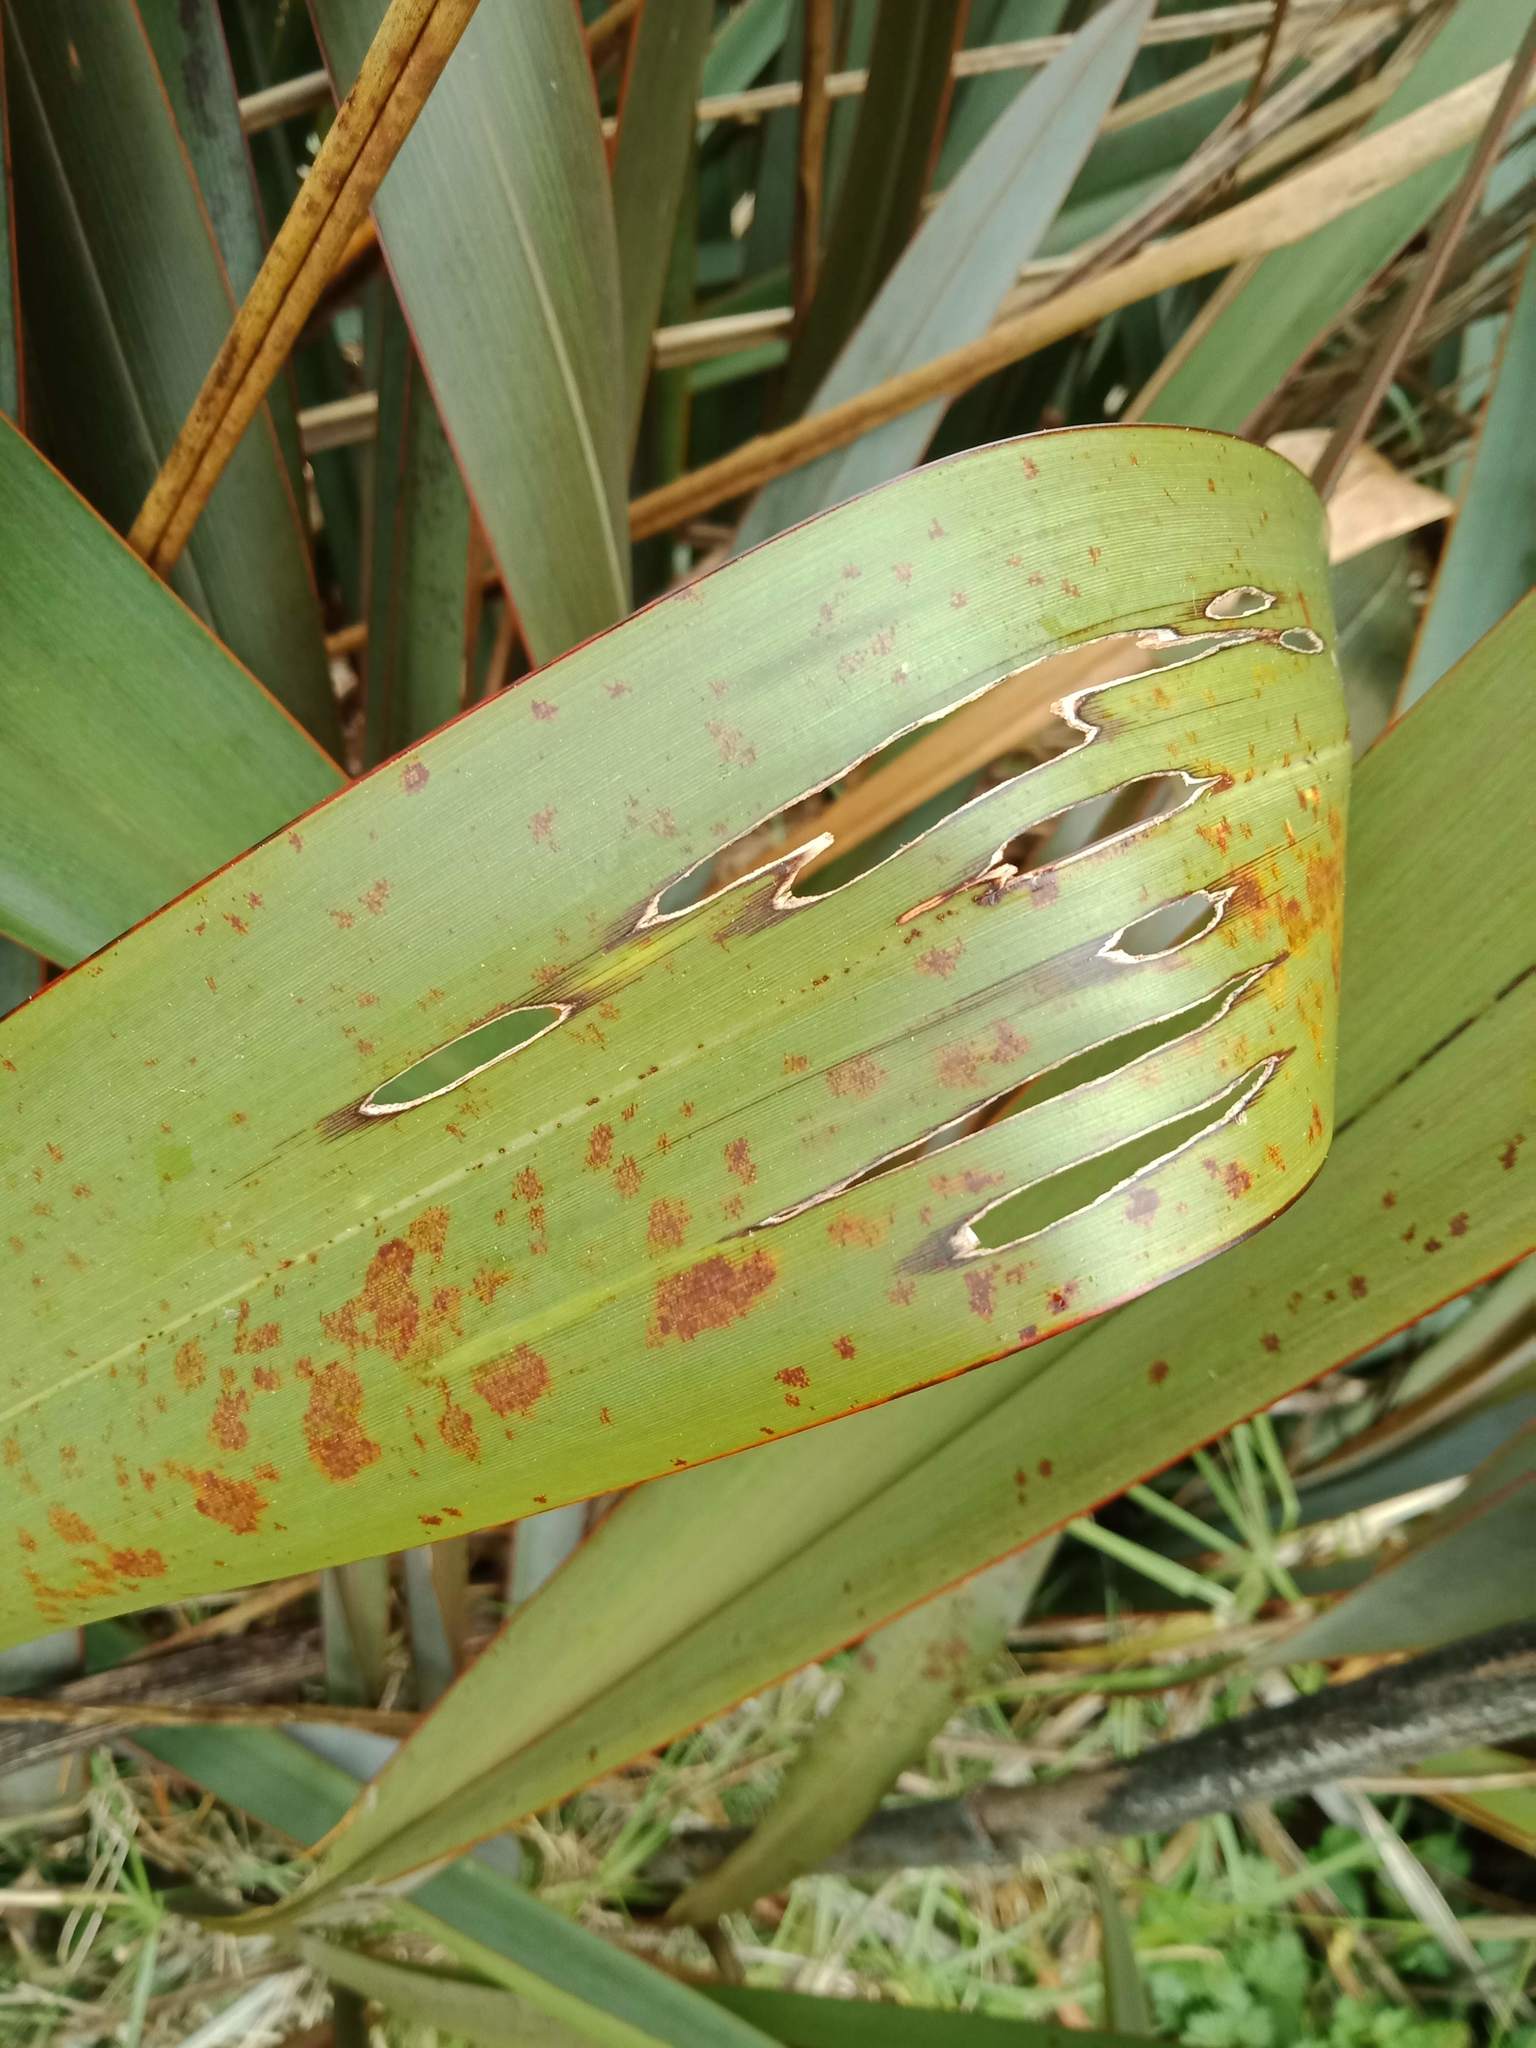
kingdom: Animalia
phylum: Arthropoda
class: Insecta
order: Lepidoptera
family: Geometridae
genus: Orthoclydon
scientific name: Orthoclydon praefectata
